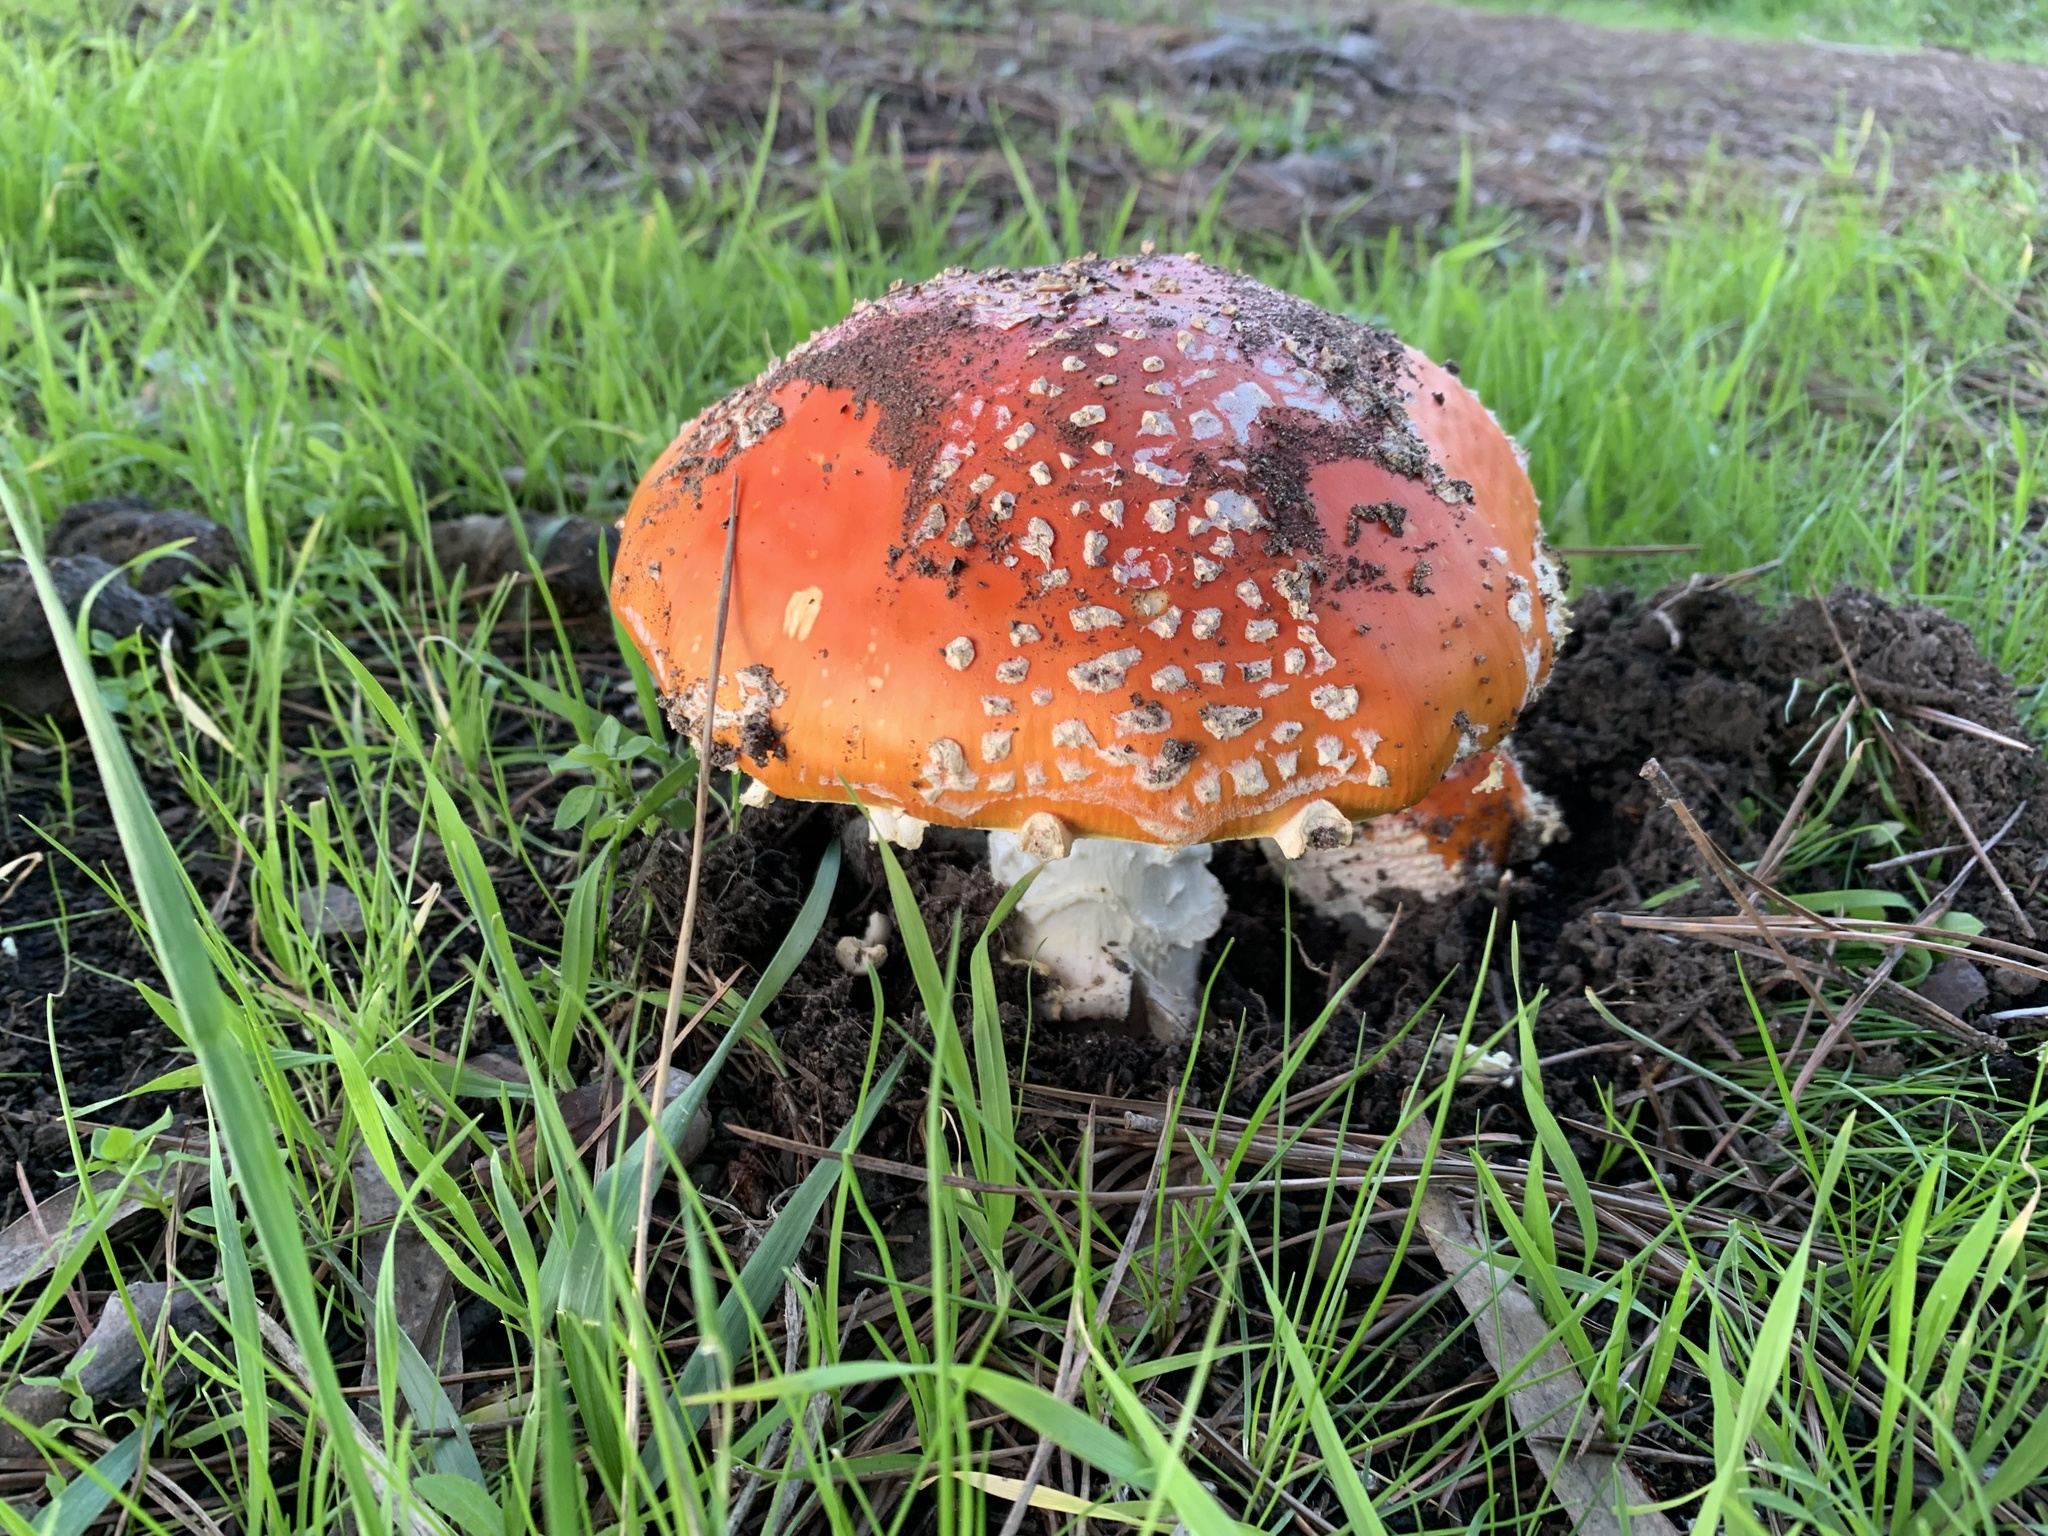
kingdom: Fungi
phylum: Basidiomycota
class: Agaricomycetes
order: Agaricales
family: Amanitaceae
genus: Amanita
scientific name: Amanita muscaria
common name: Fly agaric
